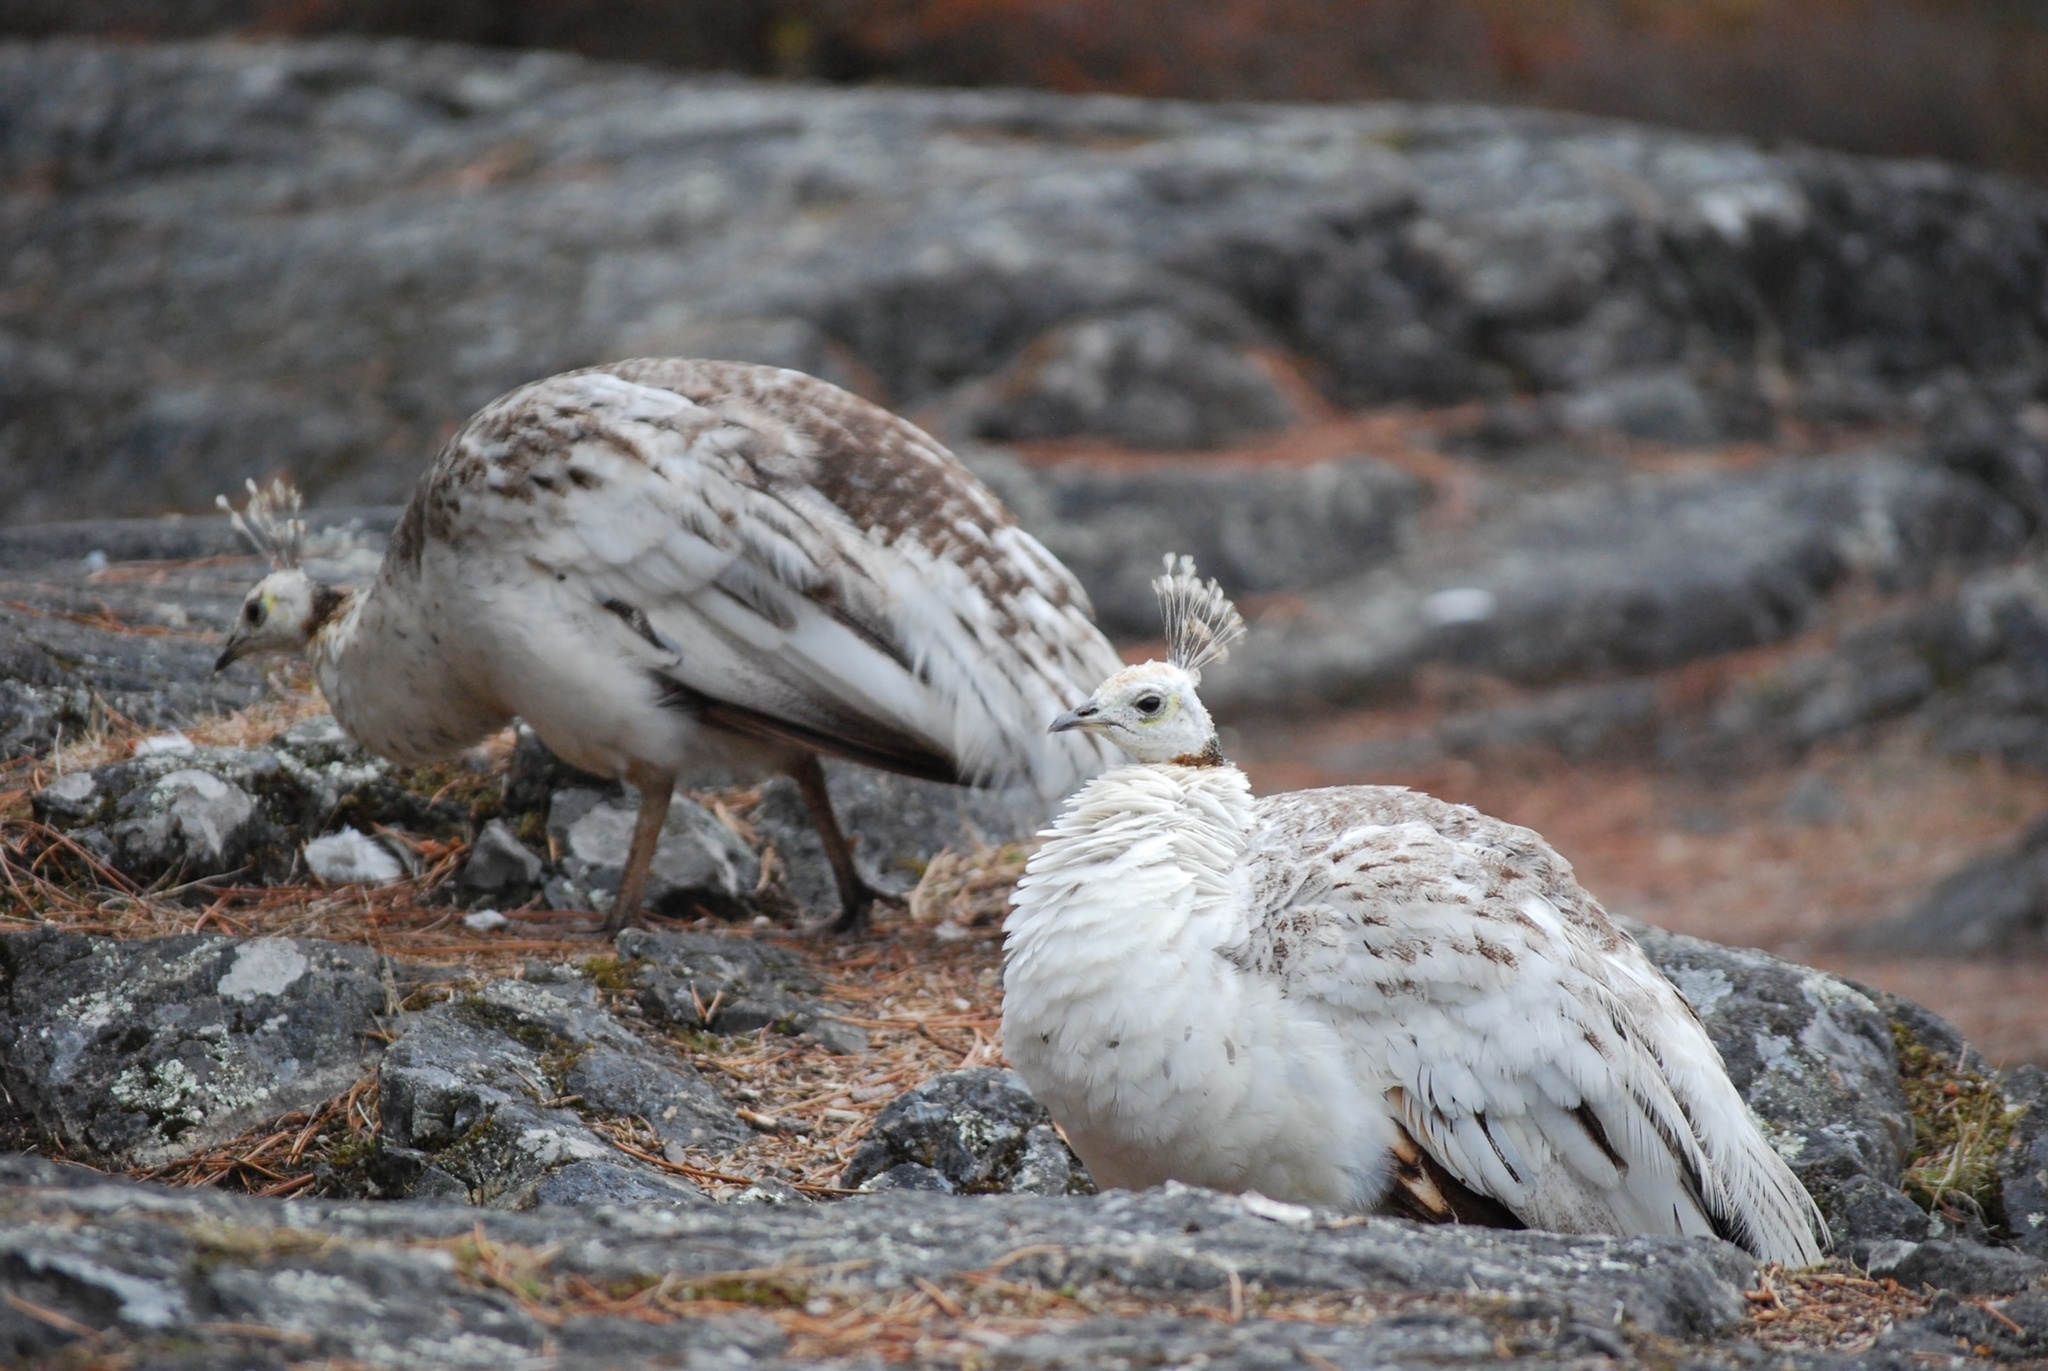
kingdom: Animalia
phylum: Chordata
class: Aves
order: Galliformes
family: Phasianidae
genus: Pavo
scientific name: Pavo cristatus
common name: Indian peafowl
